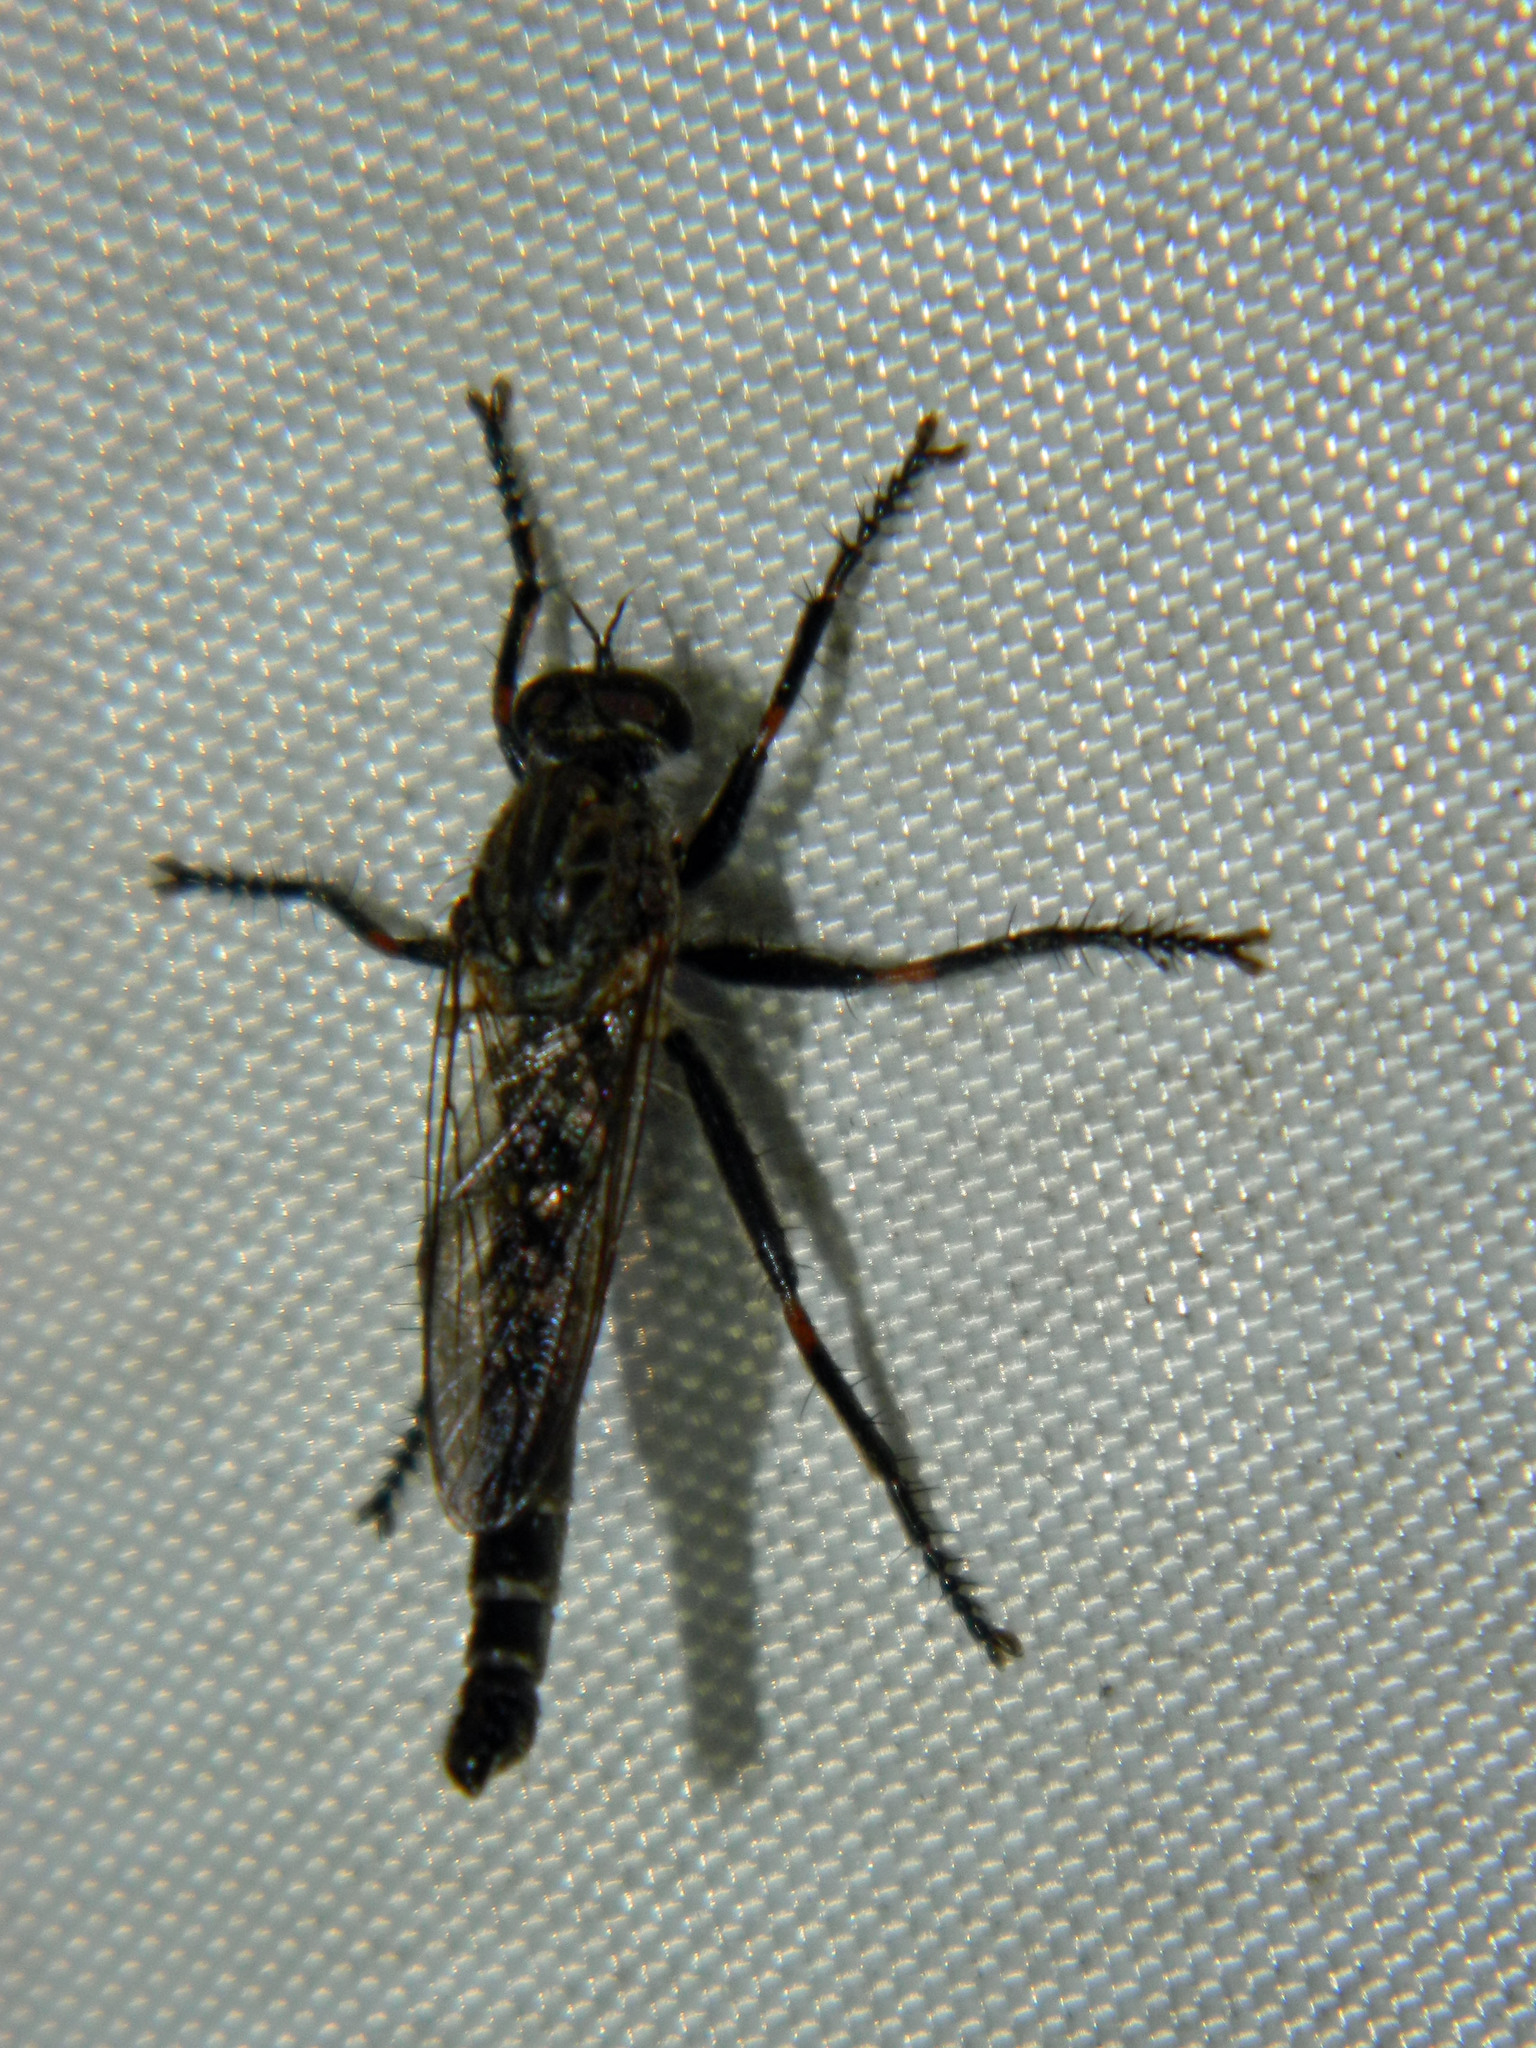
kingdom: Animalia
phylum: Arthropoda
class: Insecta
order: Diptera
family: Asilidae
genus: Machimus
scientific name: Machimus notatus
